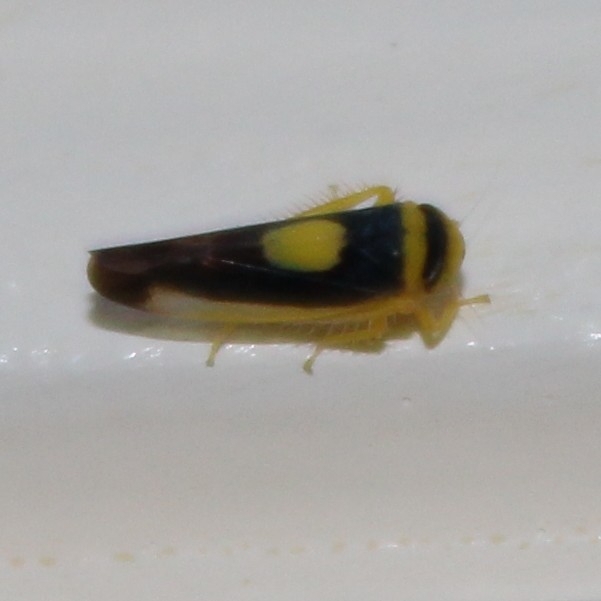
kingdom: Animalia
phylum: Arthropoda
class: Insecta
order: Hemiptera
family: Cicadellidae
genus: Colladonus
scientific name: Colladonus clitellarius
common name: The saddleback leafhopper
